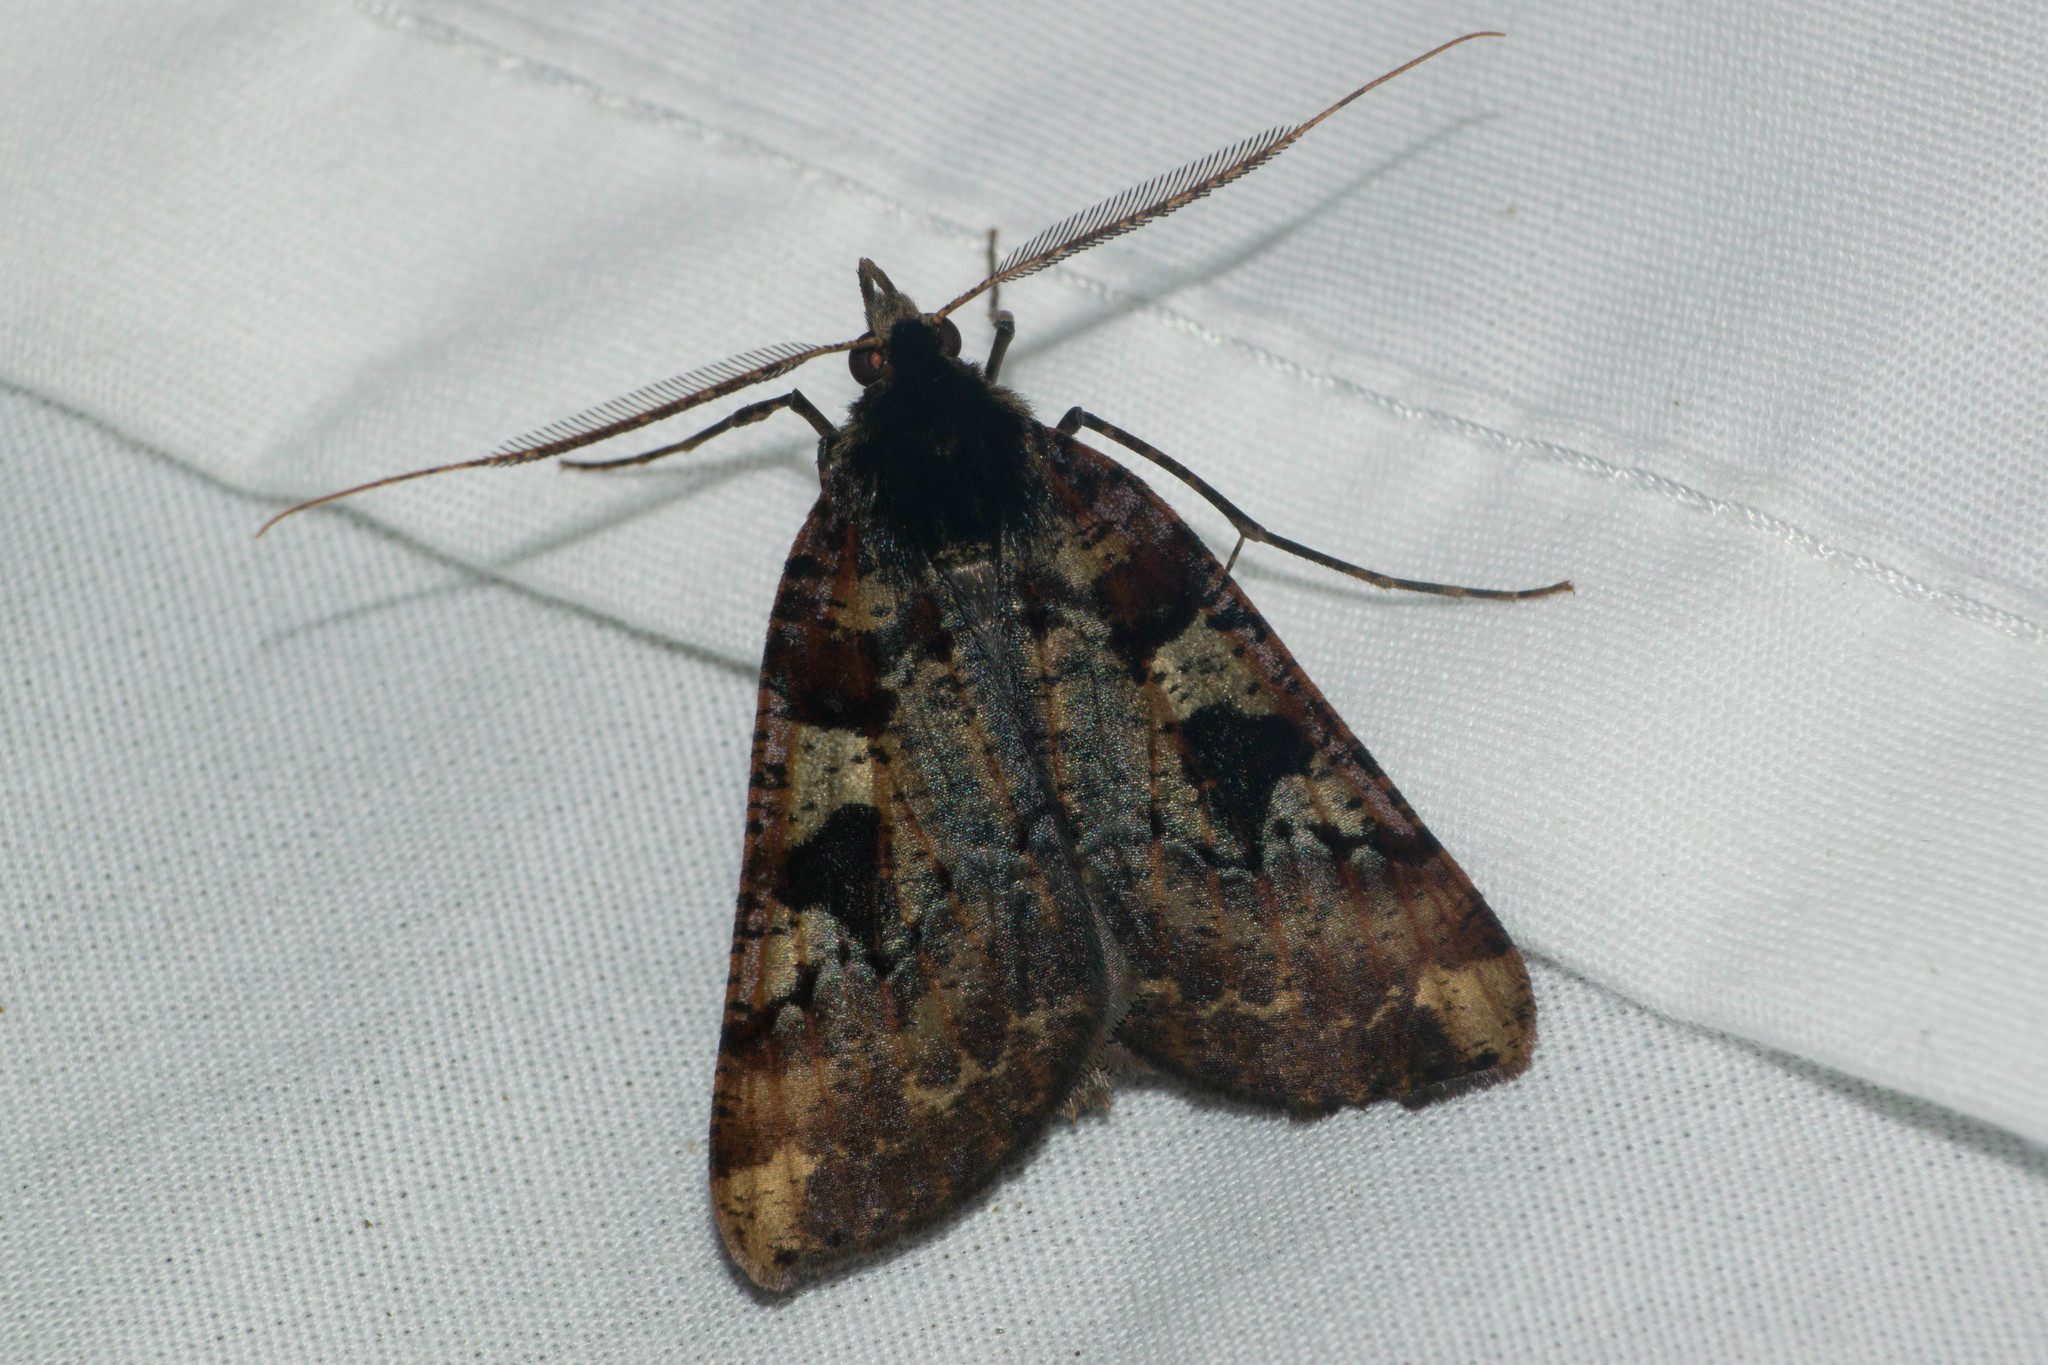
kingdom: Animalia
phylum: Arthropoda
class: Insecta
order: Lepidoptera
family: Geometridae
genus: Scotorythra
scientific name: Scotorythra pachyspila
